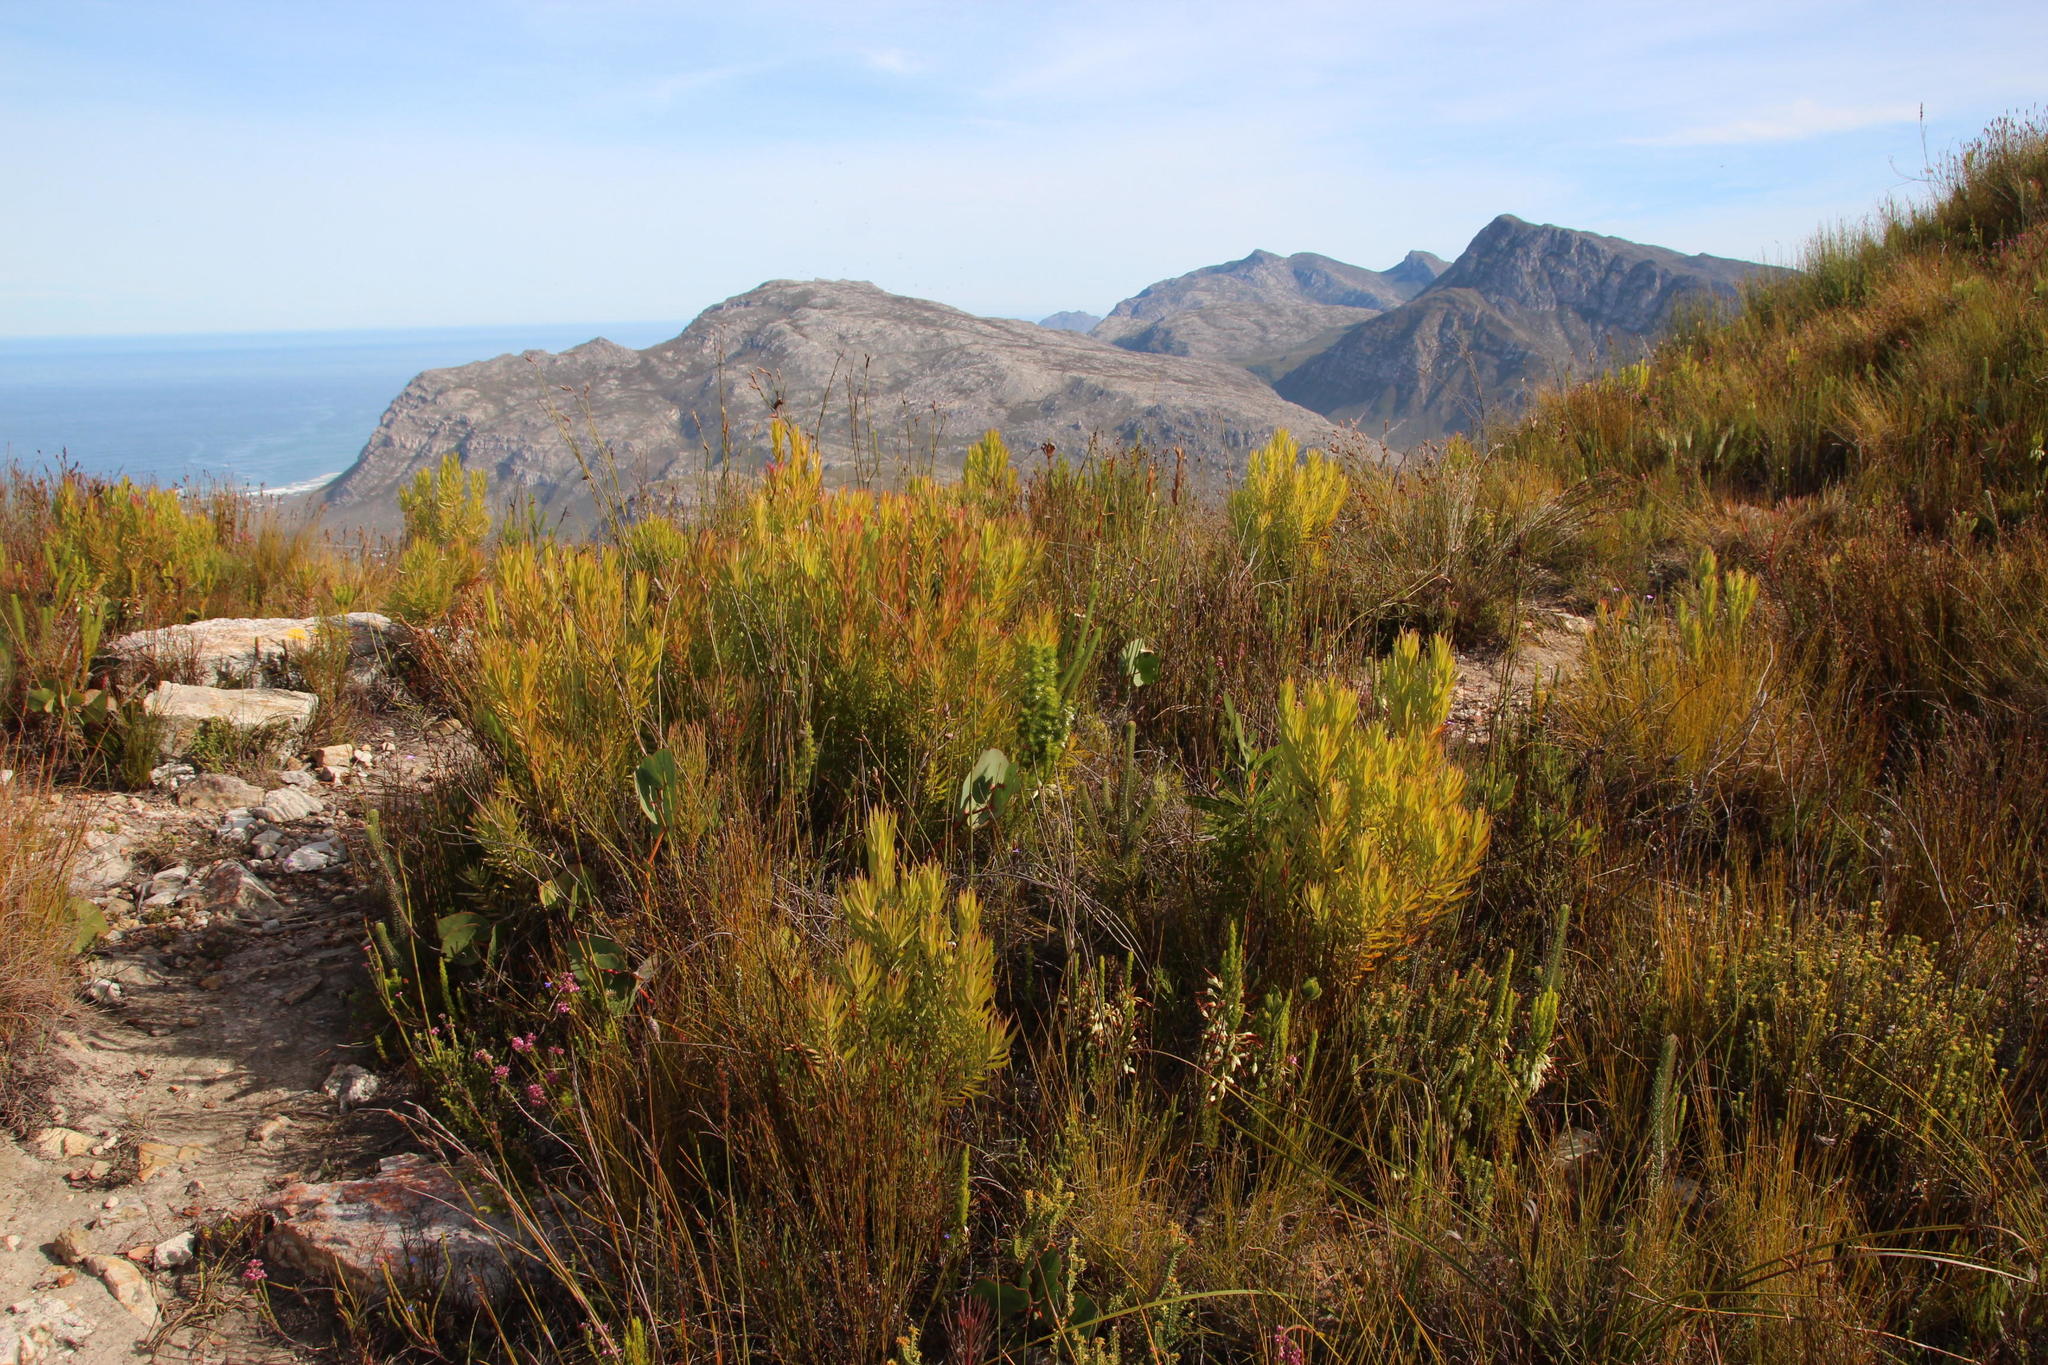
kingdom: Plantae
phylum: Tracheophyta
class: Magnoliopsida
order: Proteales
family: Proteaceae
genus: Leucadendron
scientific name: Leucadendron xanthoconus
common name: Sickle-leaf conebush
